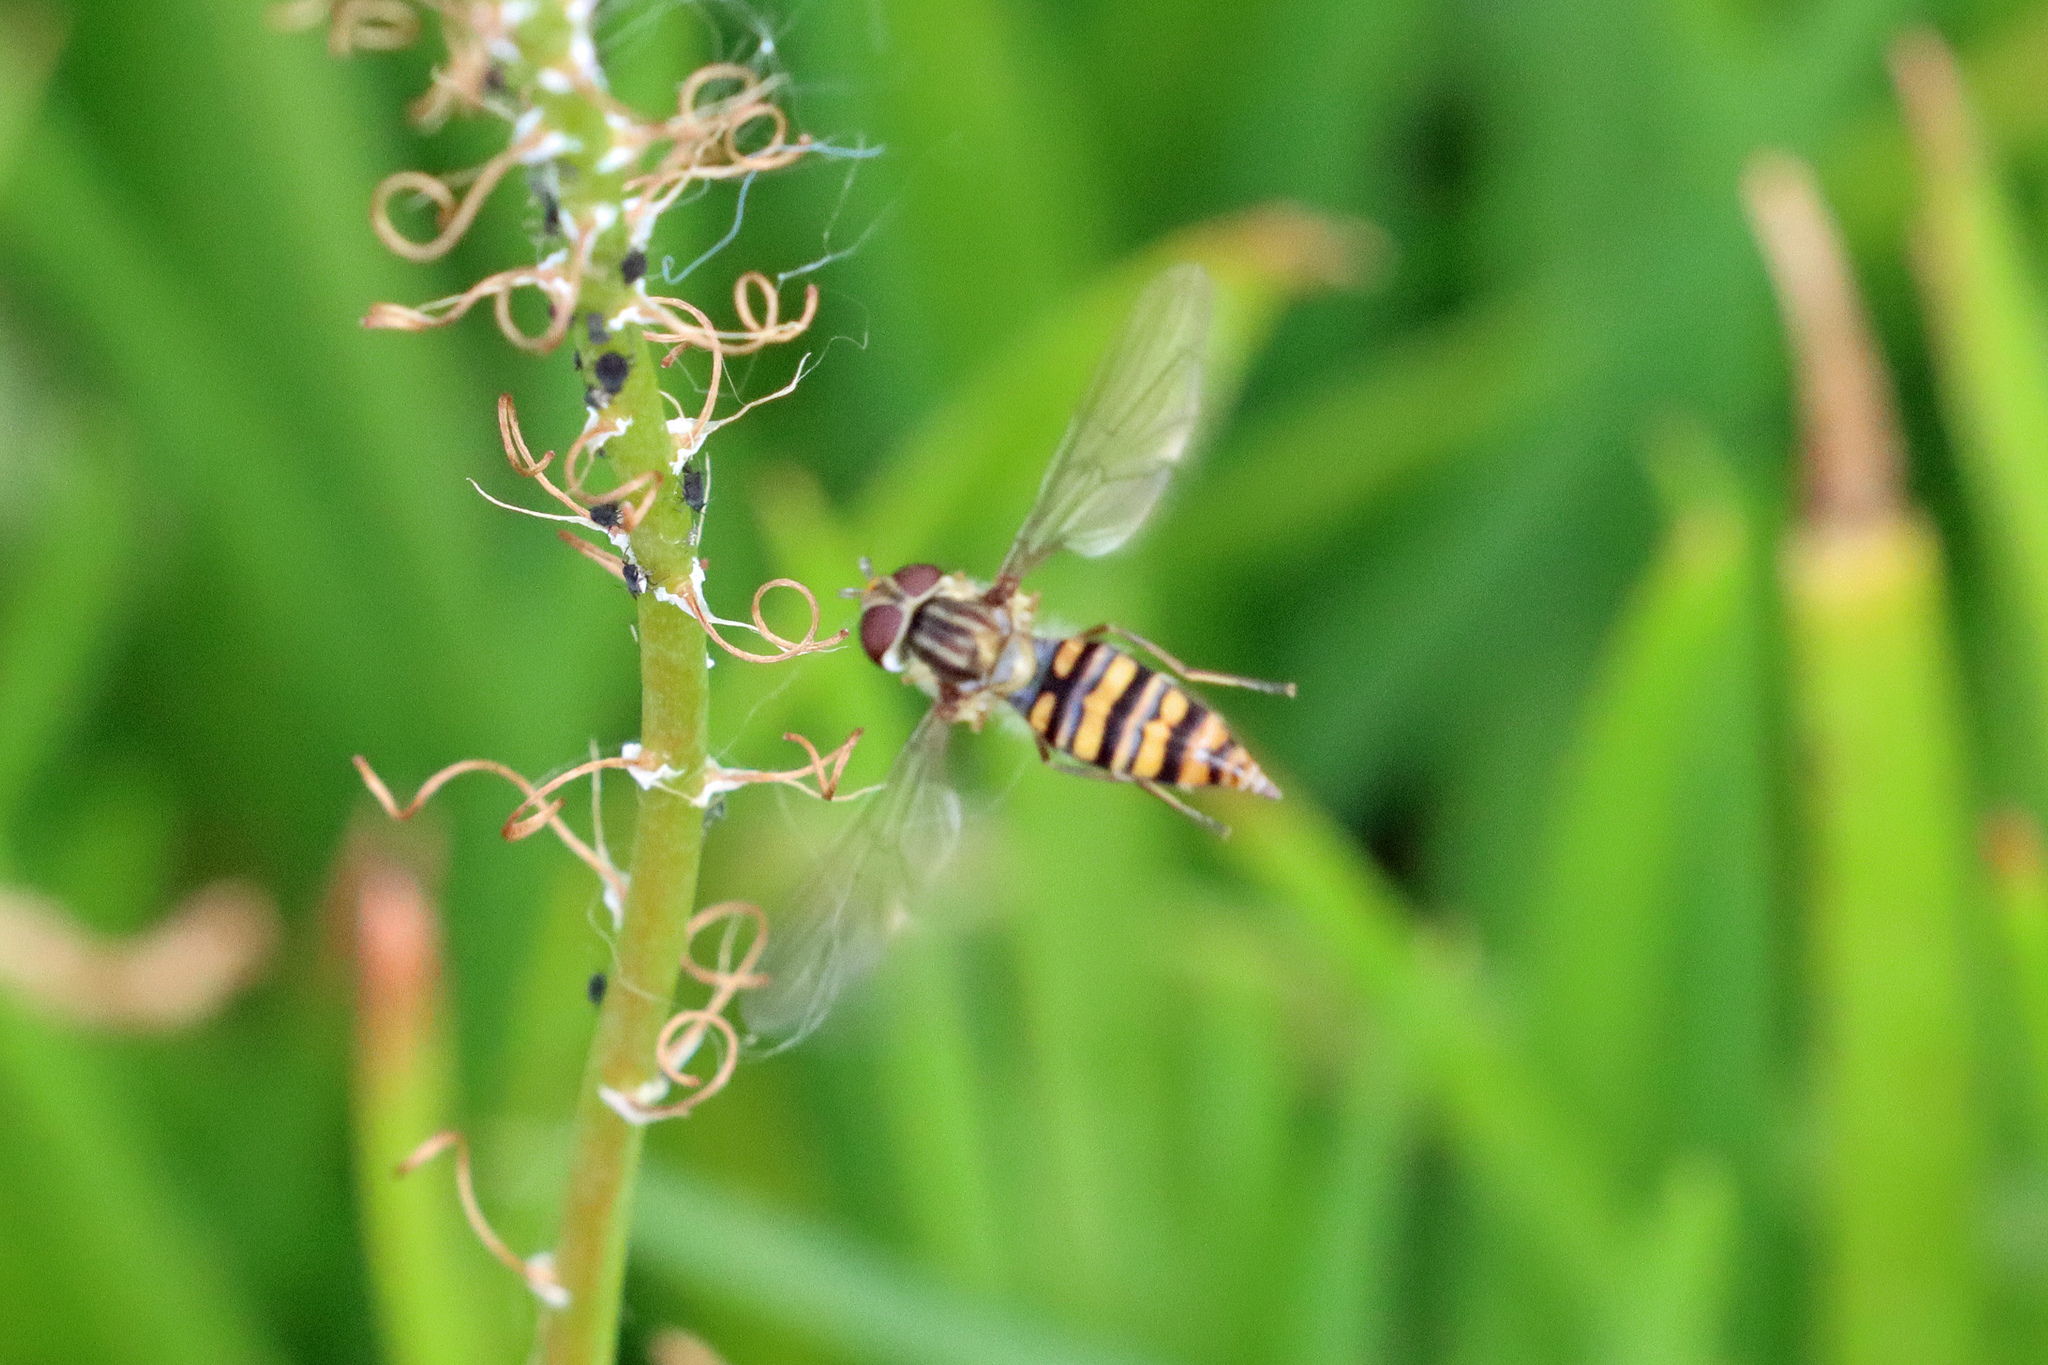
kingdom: Animalia
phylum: Arthropoda
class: Insecta
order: Diptera
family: Syrphidae
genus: Episyrphus
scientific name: Episyrphus balteatus
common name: Marmalade hoverfly
